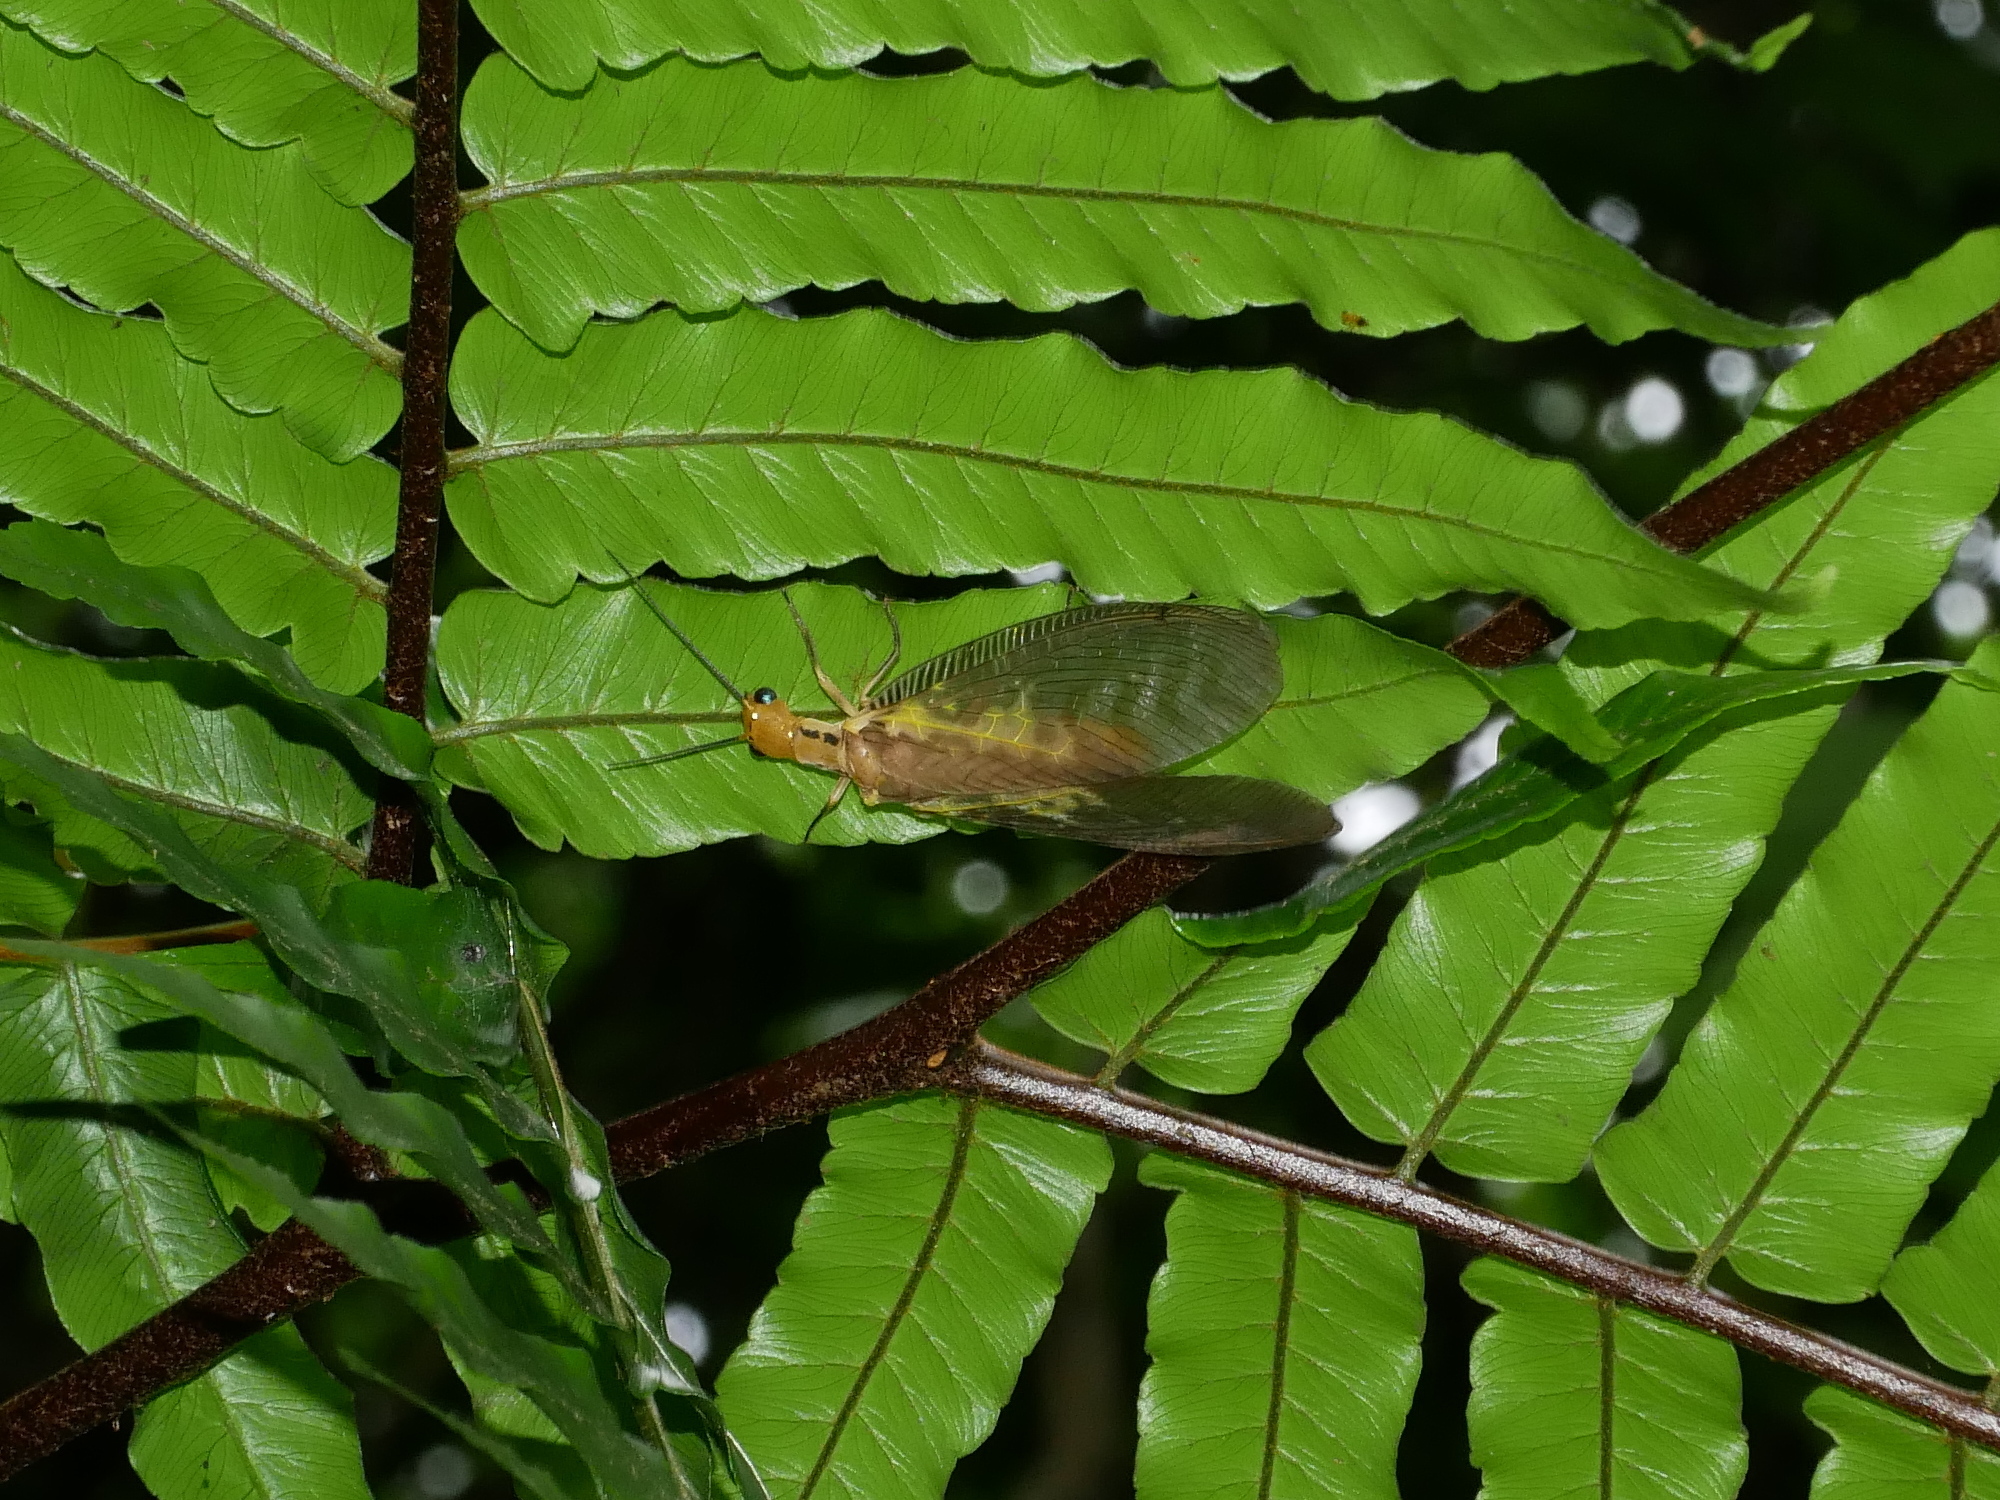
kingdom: Animalia
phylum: Arthropoda
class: Insecta
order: Megaloptera
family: Corydalidae
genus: Protohermes
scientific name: Protohermes costalis
